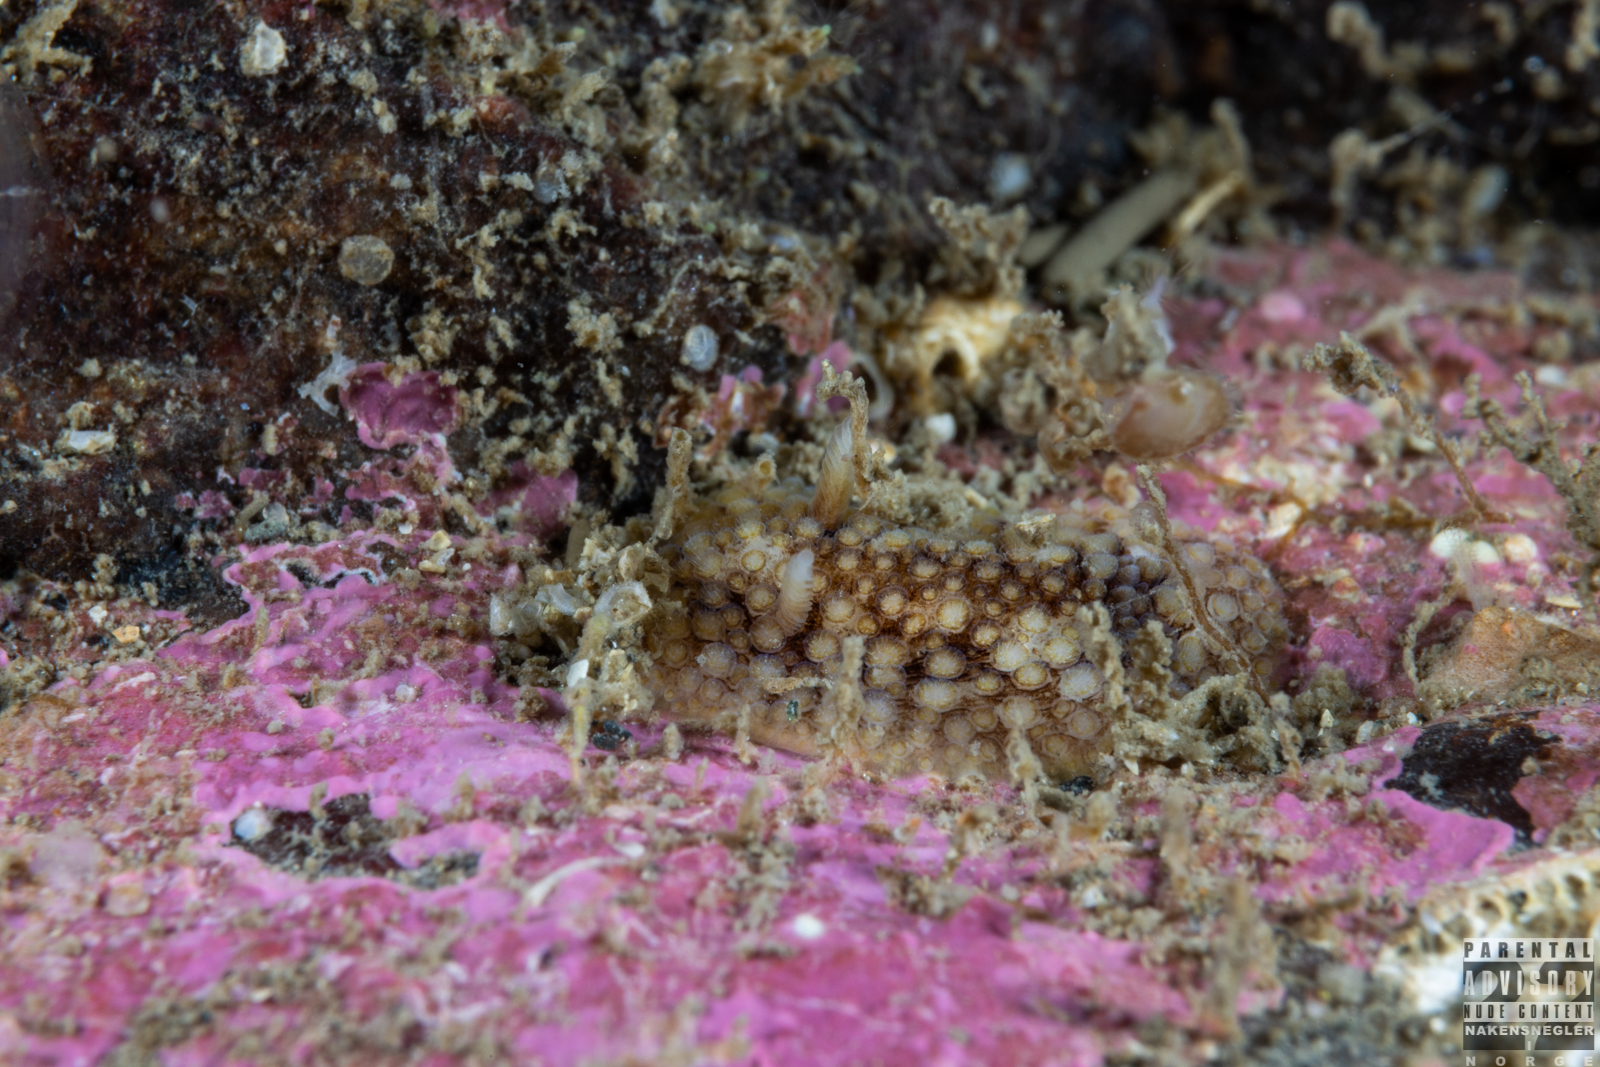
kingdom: Animalia
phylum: Mollusca
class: Gastropoda
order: Nudibranchia
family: Onchidorididae
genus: Onchidoris
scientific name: Onchidoris bilamellata
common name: Barnacle-eating onchidoris
